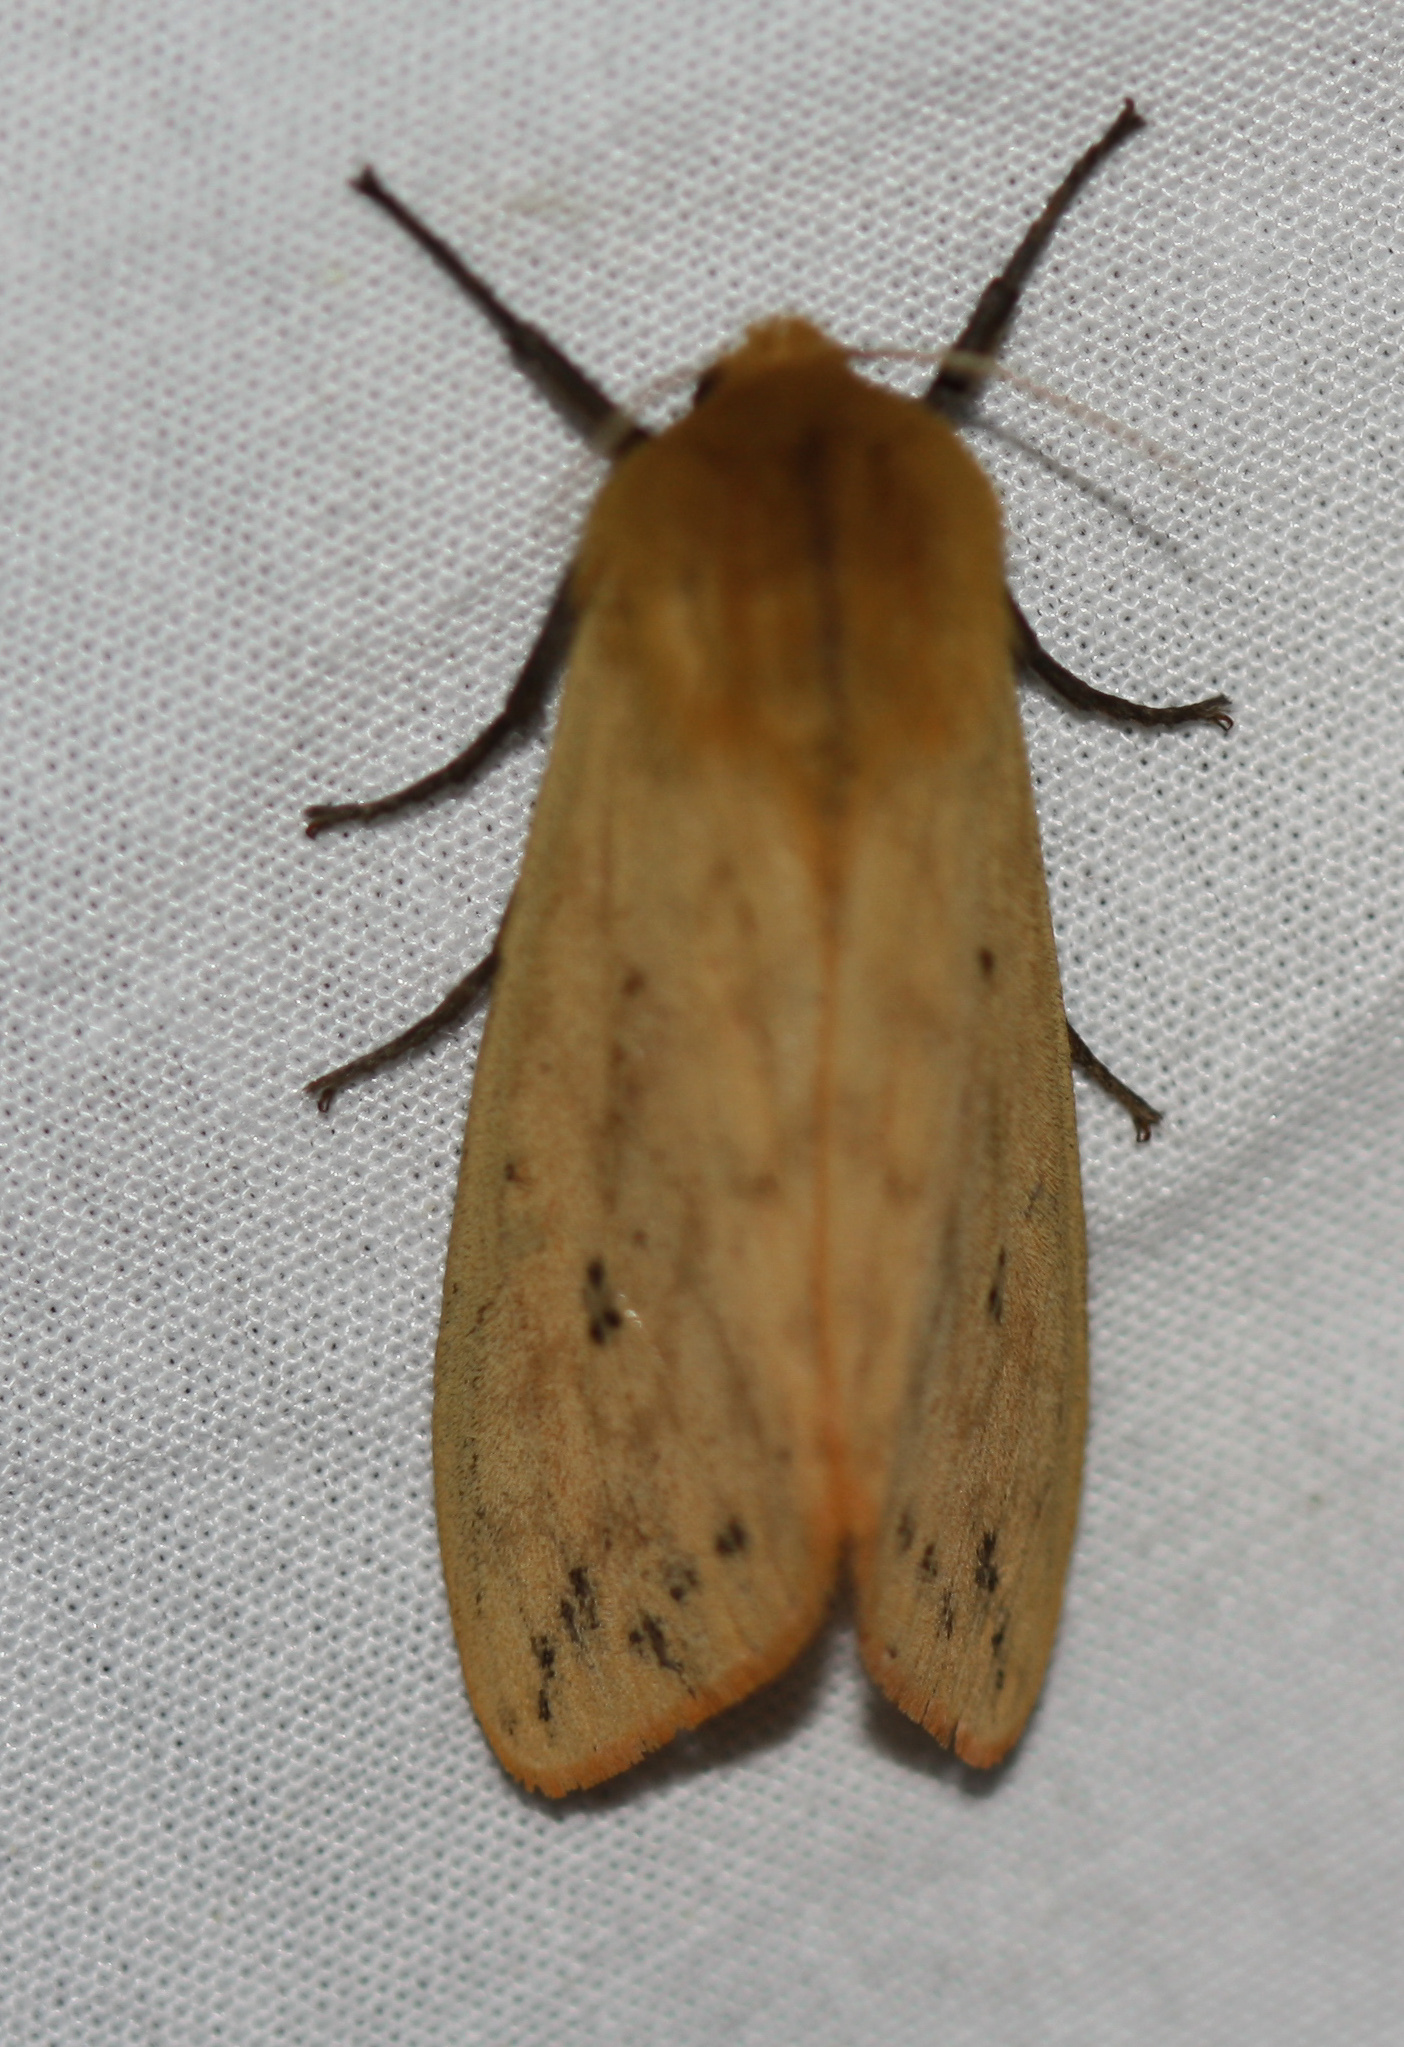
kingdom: Animalia
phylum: Arthropoda
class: Insecta
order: Lepidoptera
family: Erebidae
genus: Pyrrharctia
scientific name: Pyrrharctia isabella
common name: Isabella tiger moth
